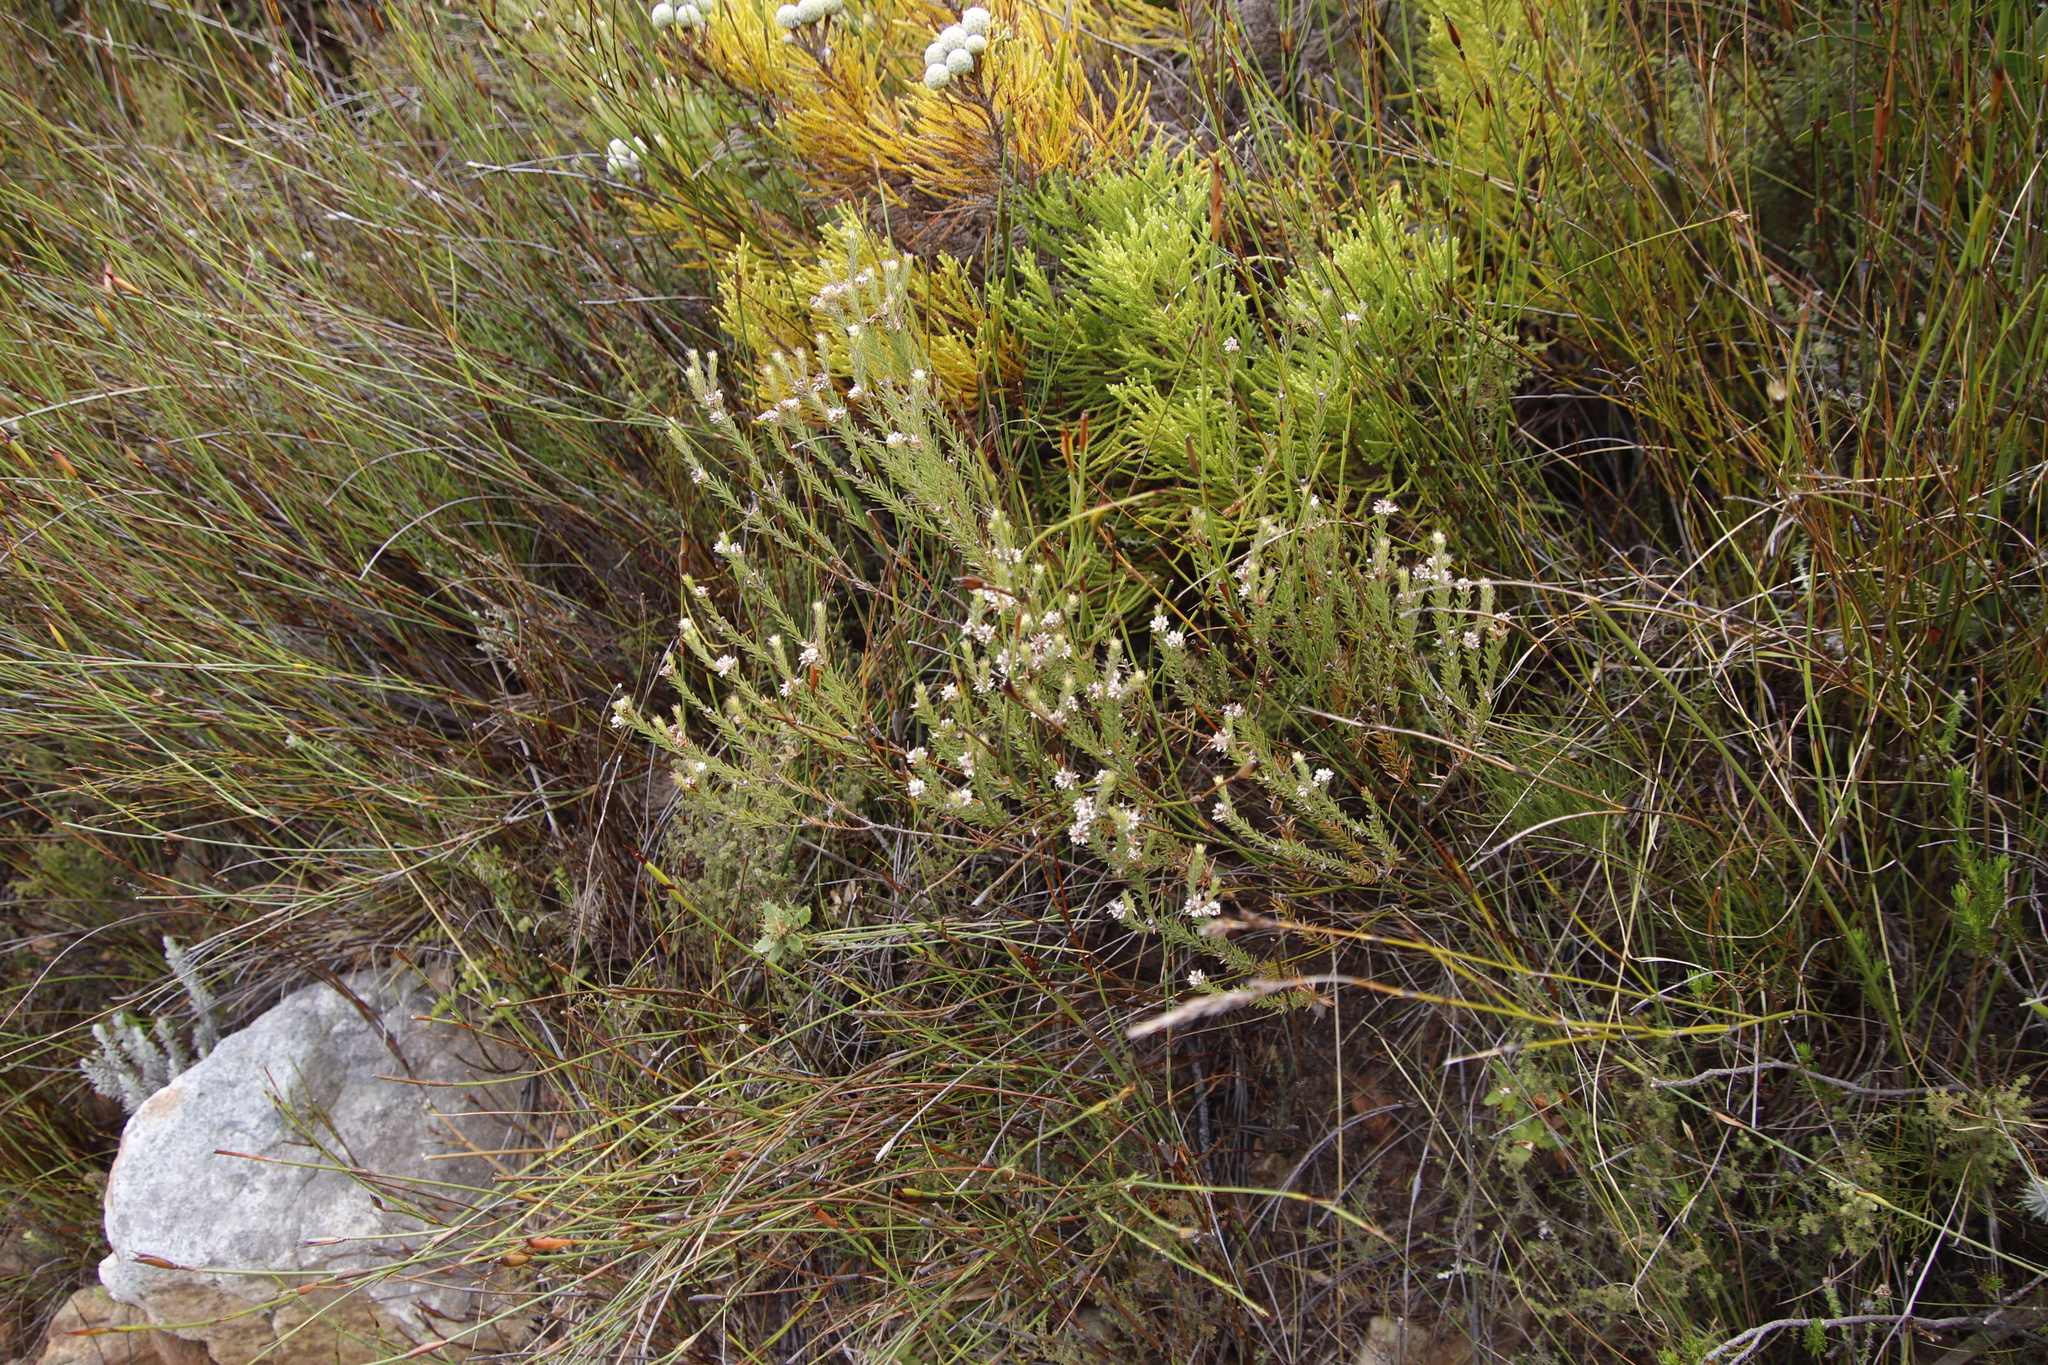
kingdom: Plantae
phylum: Tracheophyta
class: Magnoliopsida
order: Bruniales
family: Bruniaceae
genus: Staavia
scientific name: Staavia radiata
